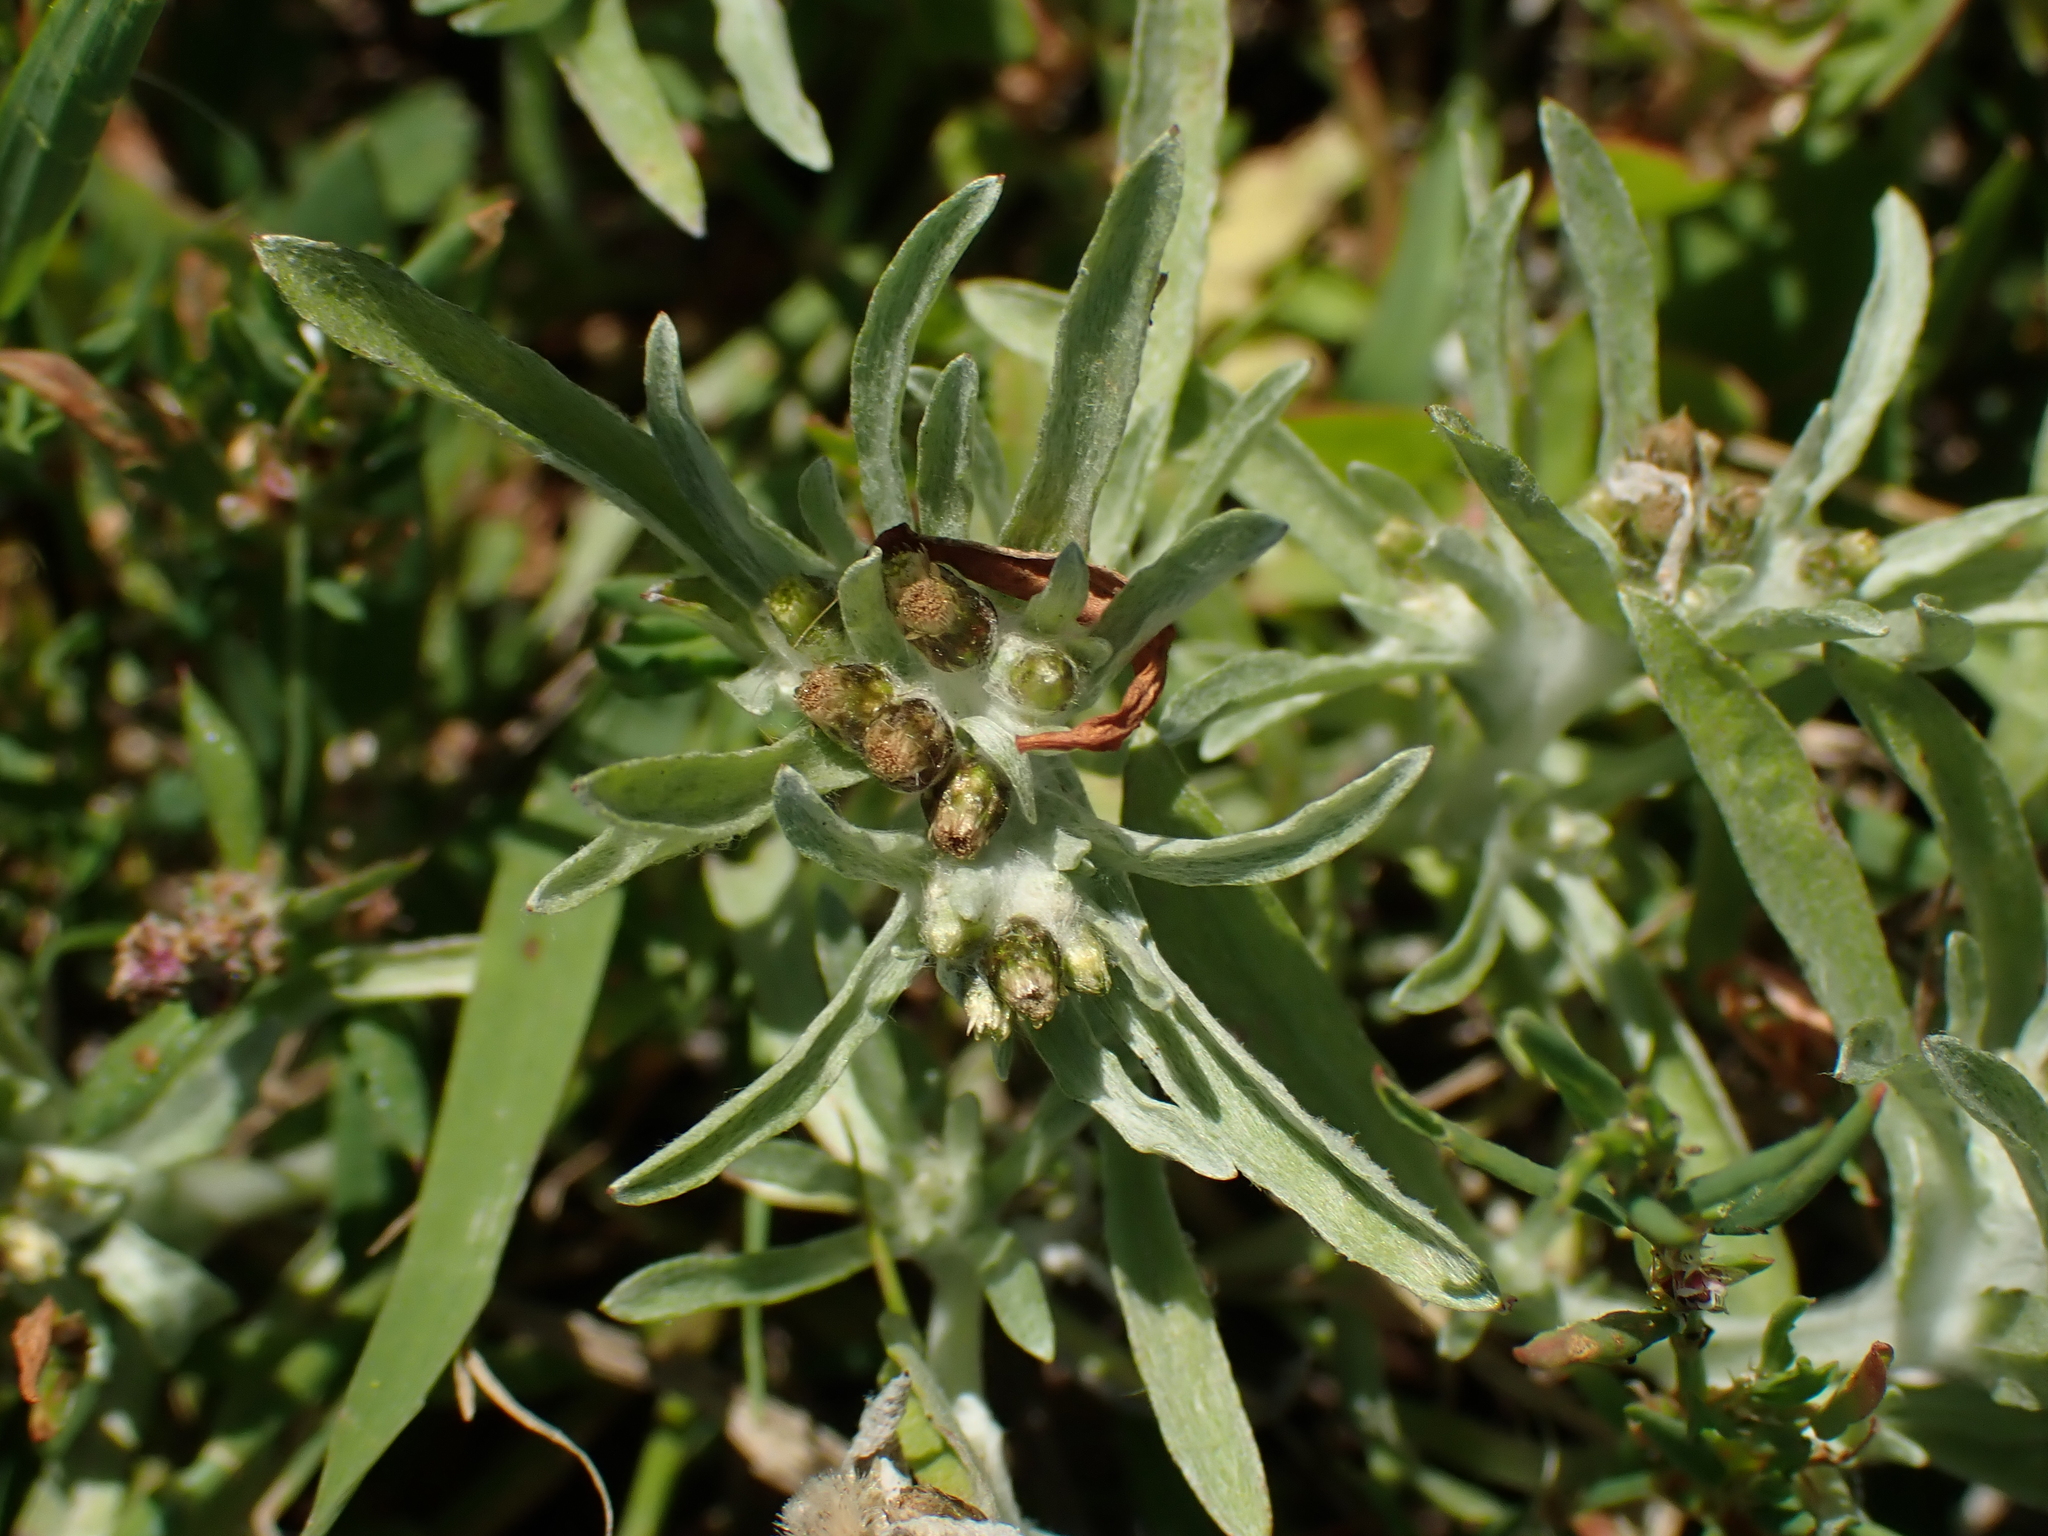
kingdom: Plantae
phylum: Tracheophyta
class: Magnoliopsida
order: Asterales
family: Asteraceae
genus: Gnaphalium
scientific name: Gnaphalium uliginosum
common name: Marsh cudweed
